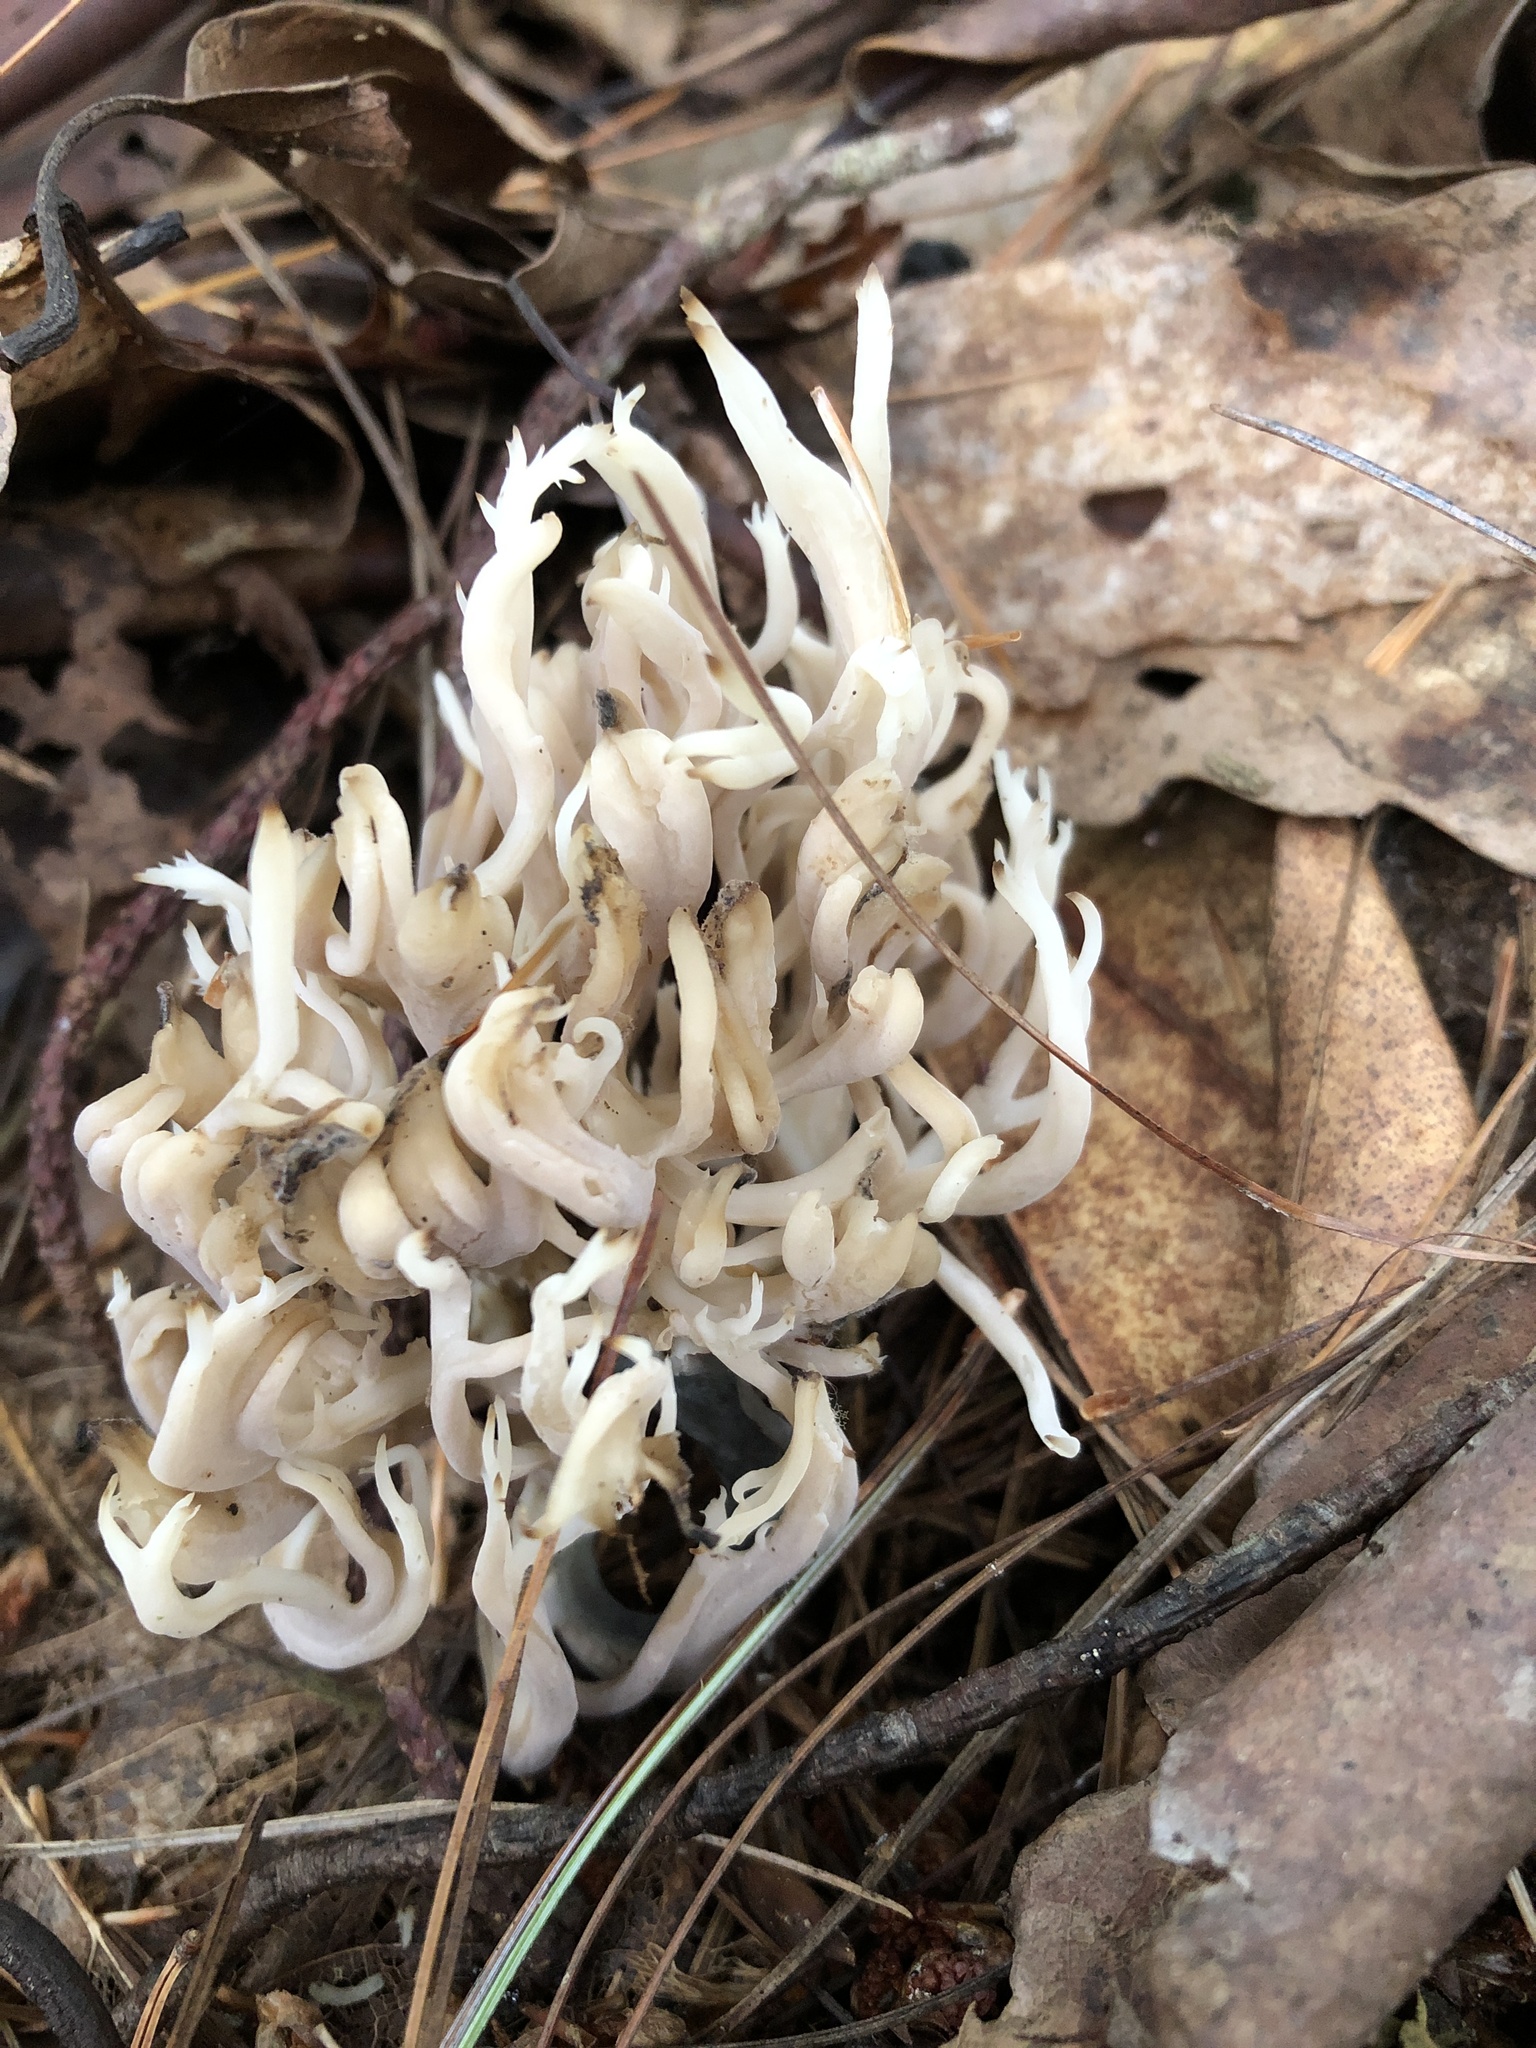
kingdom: Fungi
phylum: Basidiomycota
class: Agaricomycetes
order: Cantharellales
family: Hydnaceae
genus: Clavulina
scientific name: Clavulina coralloides
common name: Crested coral
